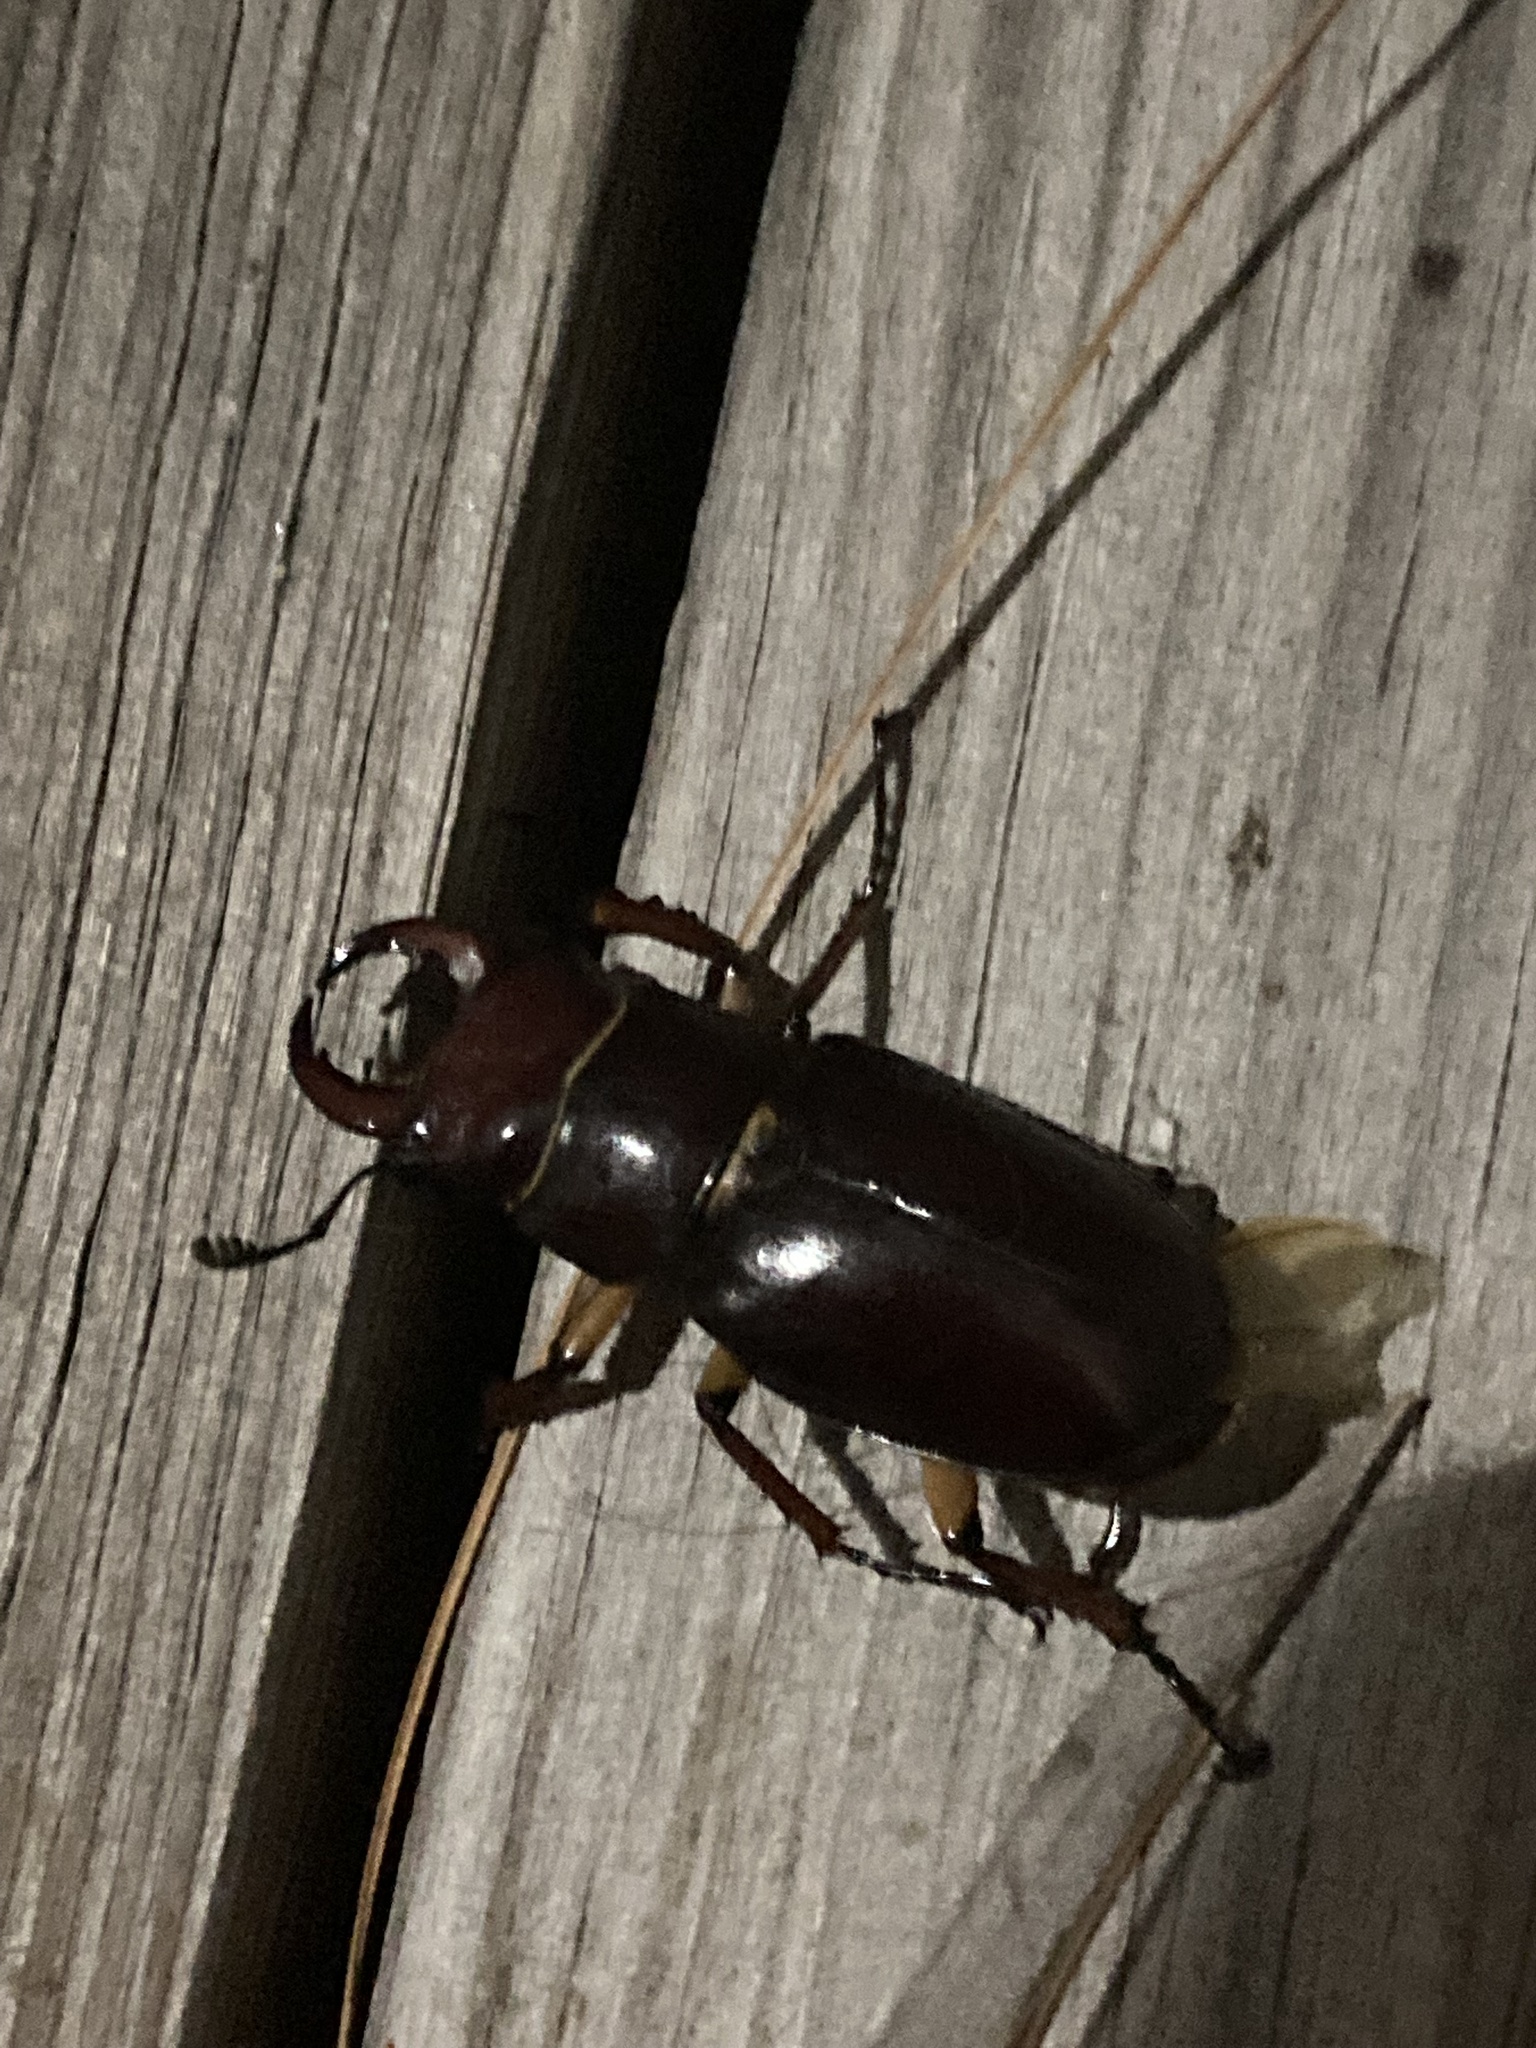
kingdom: Animalia
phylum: Arthropoda
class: Insecta
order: Coleoptera
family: Lucanidae
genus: Lucanus
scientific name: Lucanus capreolus
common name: Stag beetle
